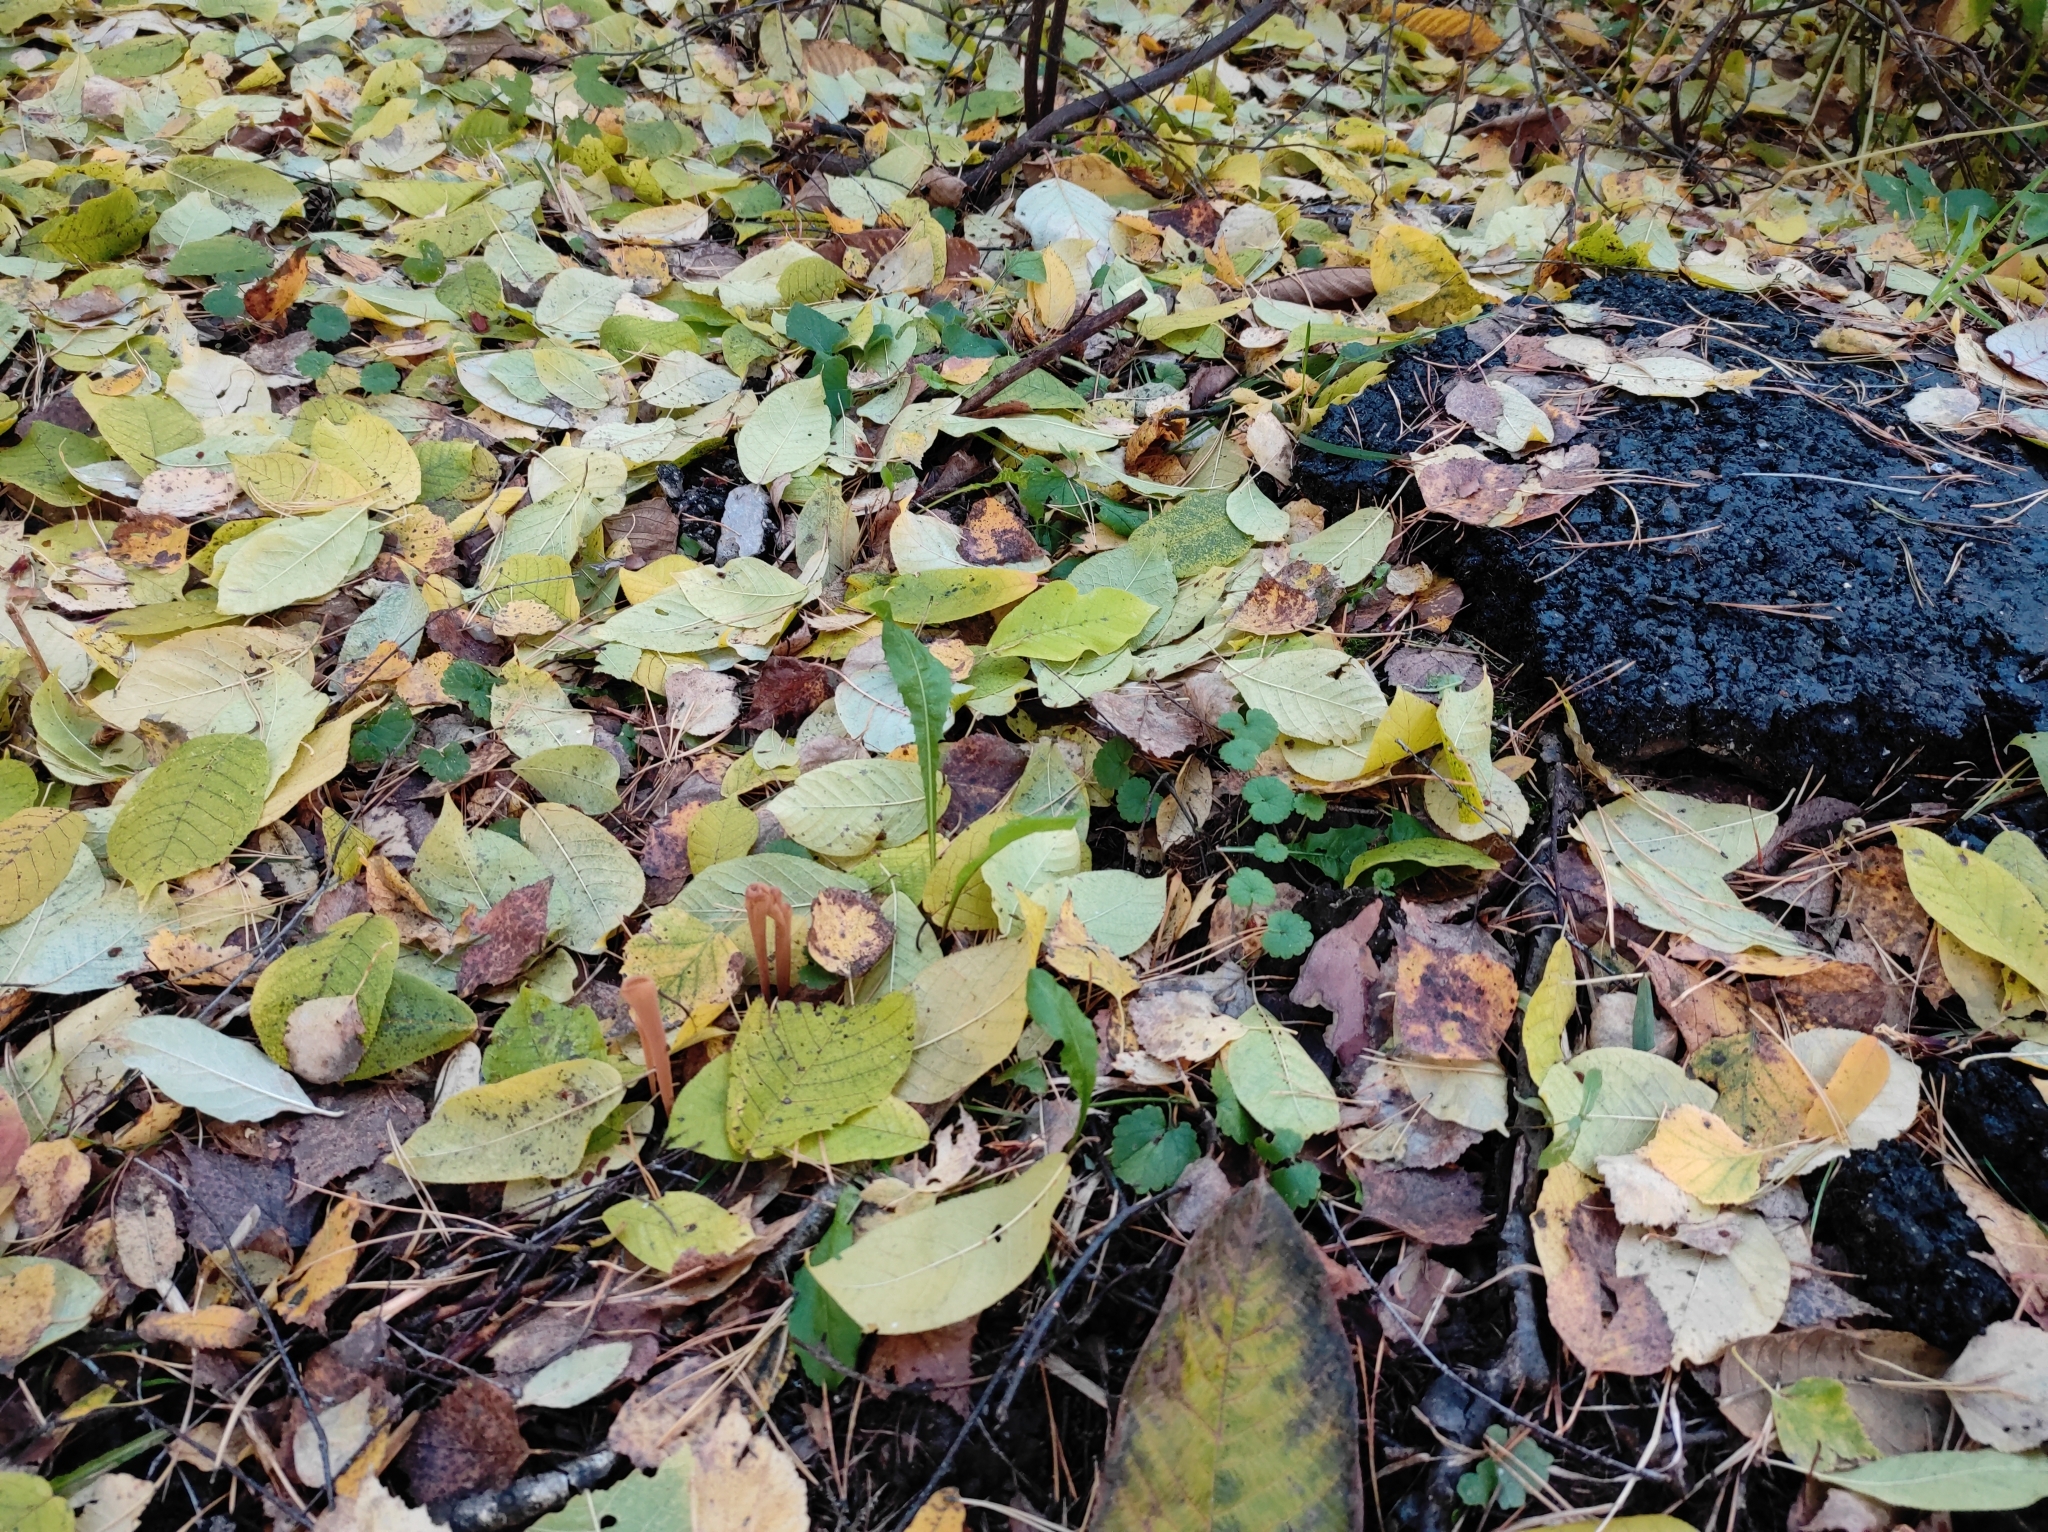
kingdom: Fungi
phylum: Basidiomycota
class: Agaricomycetes
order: Agaricales
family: Typhulaceae
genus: Typhula
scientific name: Typhula fistulosa
